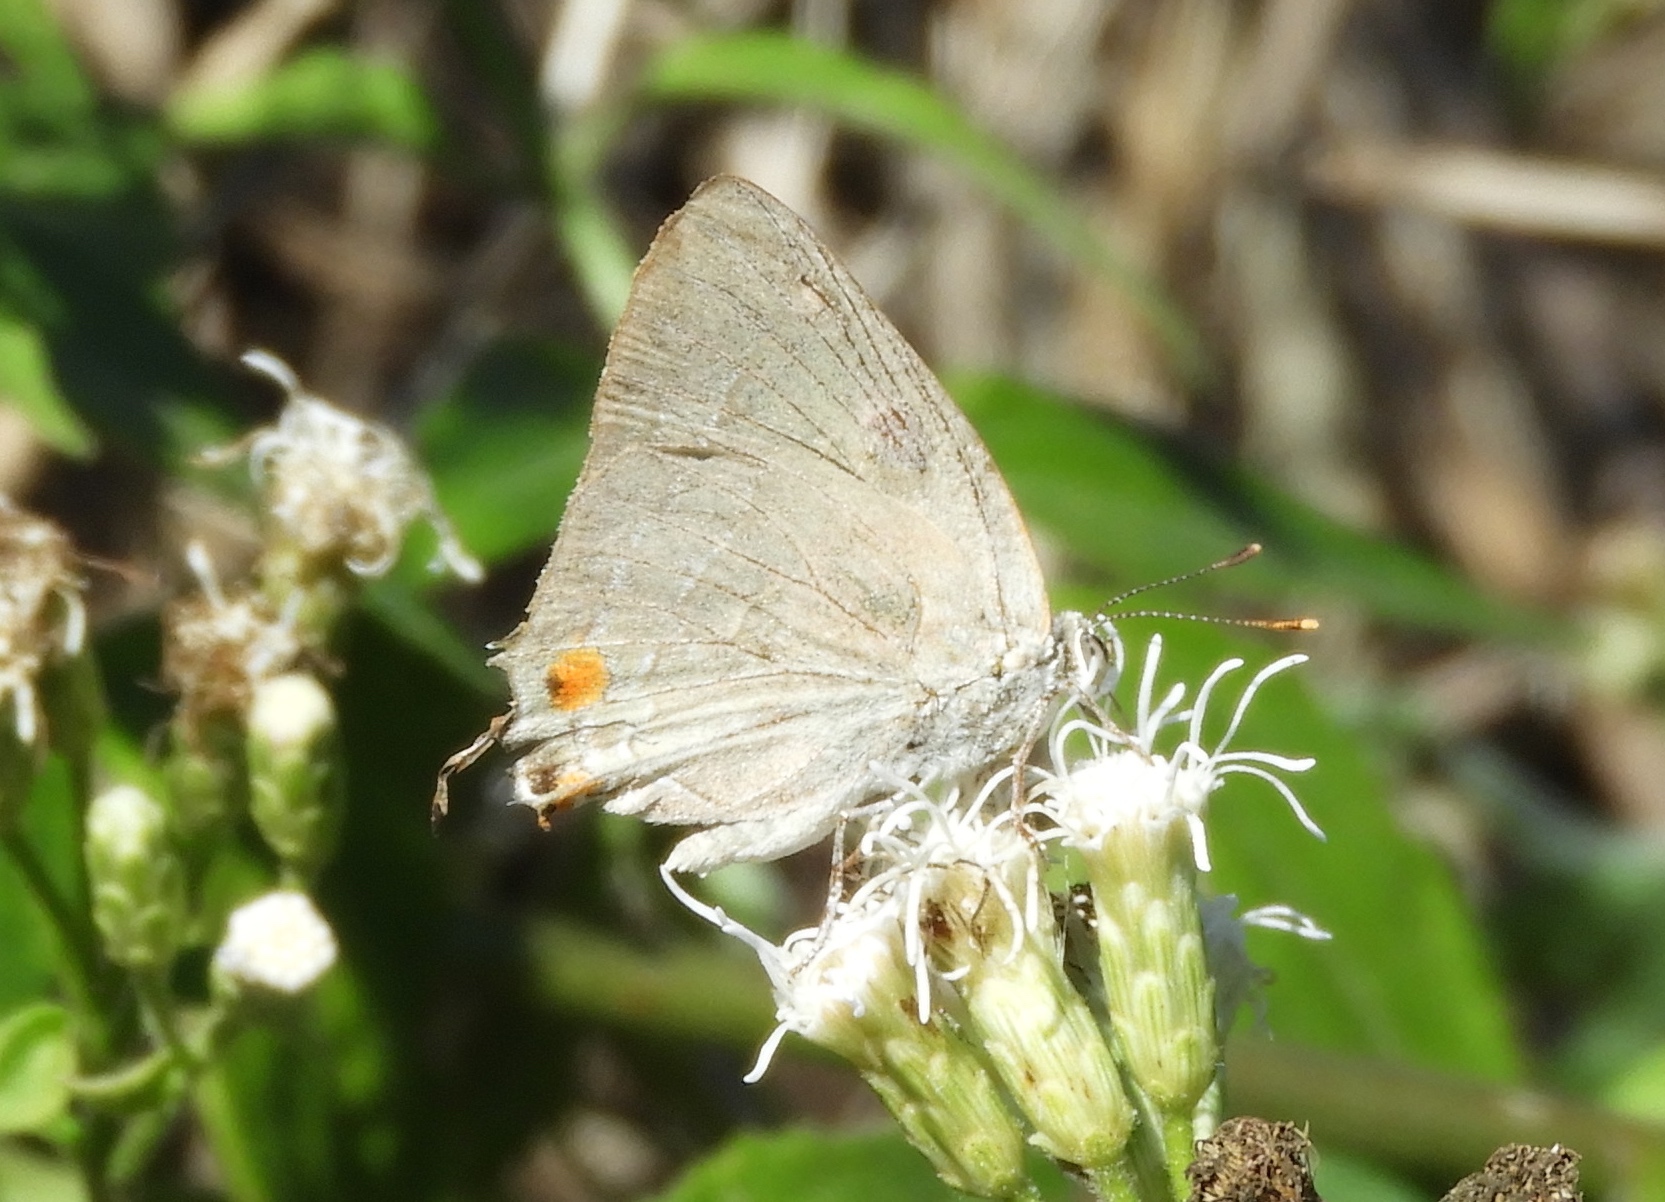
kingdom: Animalia
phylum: Arthropoda
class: Insecta
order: Lepidoptera
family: Lycaenidae
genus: Rekoa
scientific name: Rekoa
